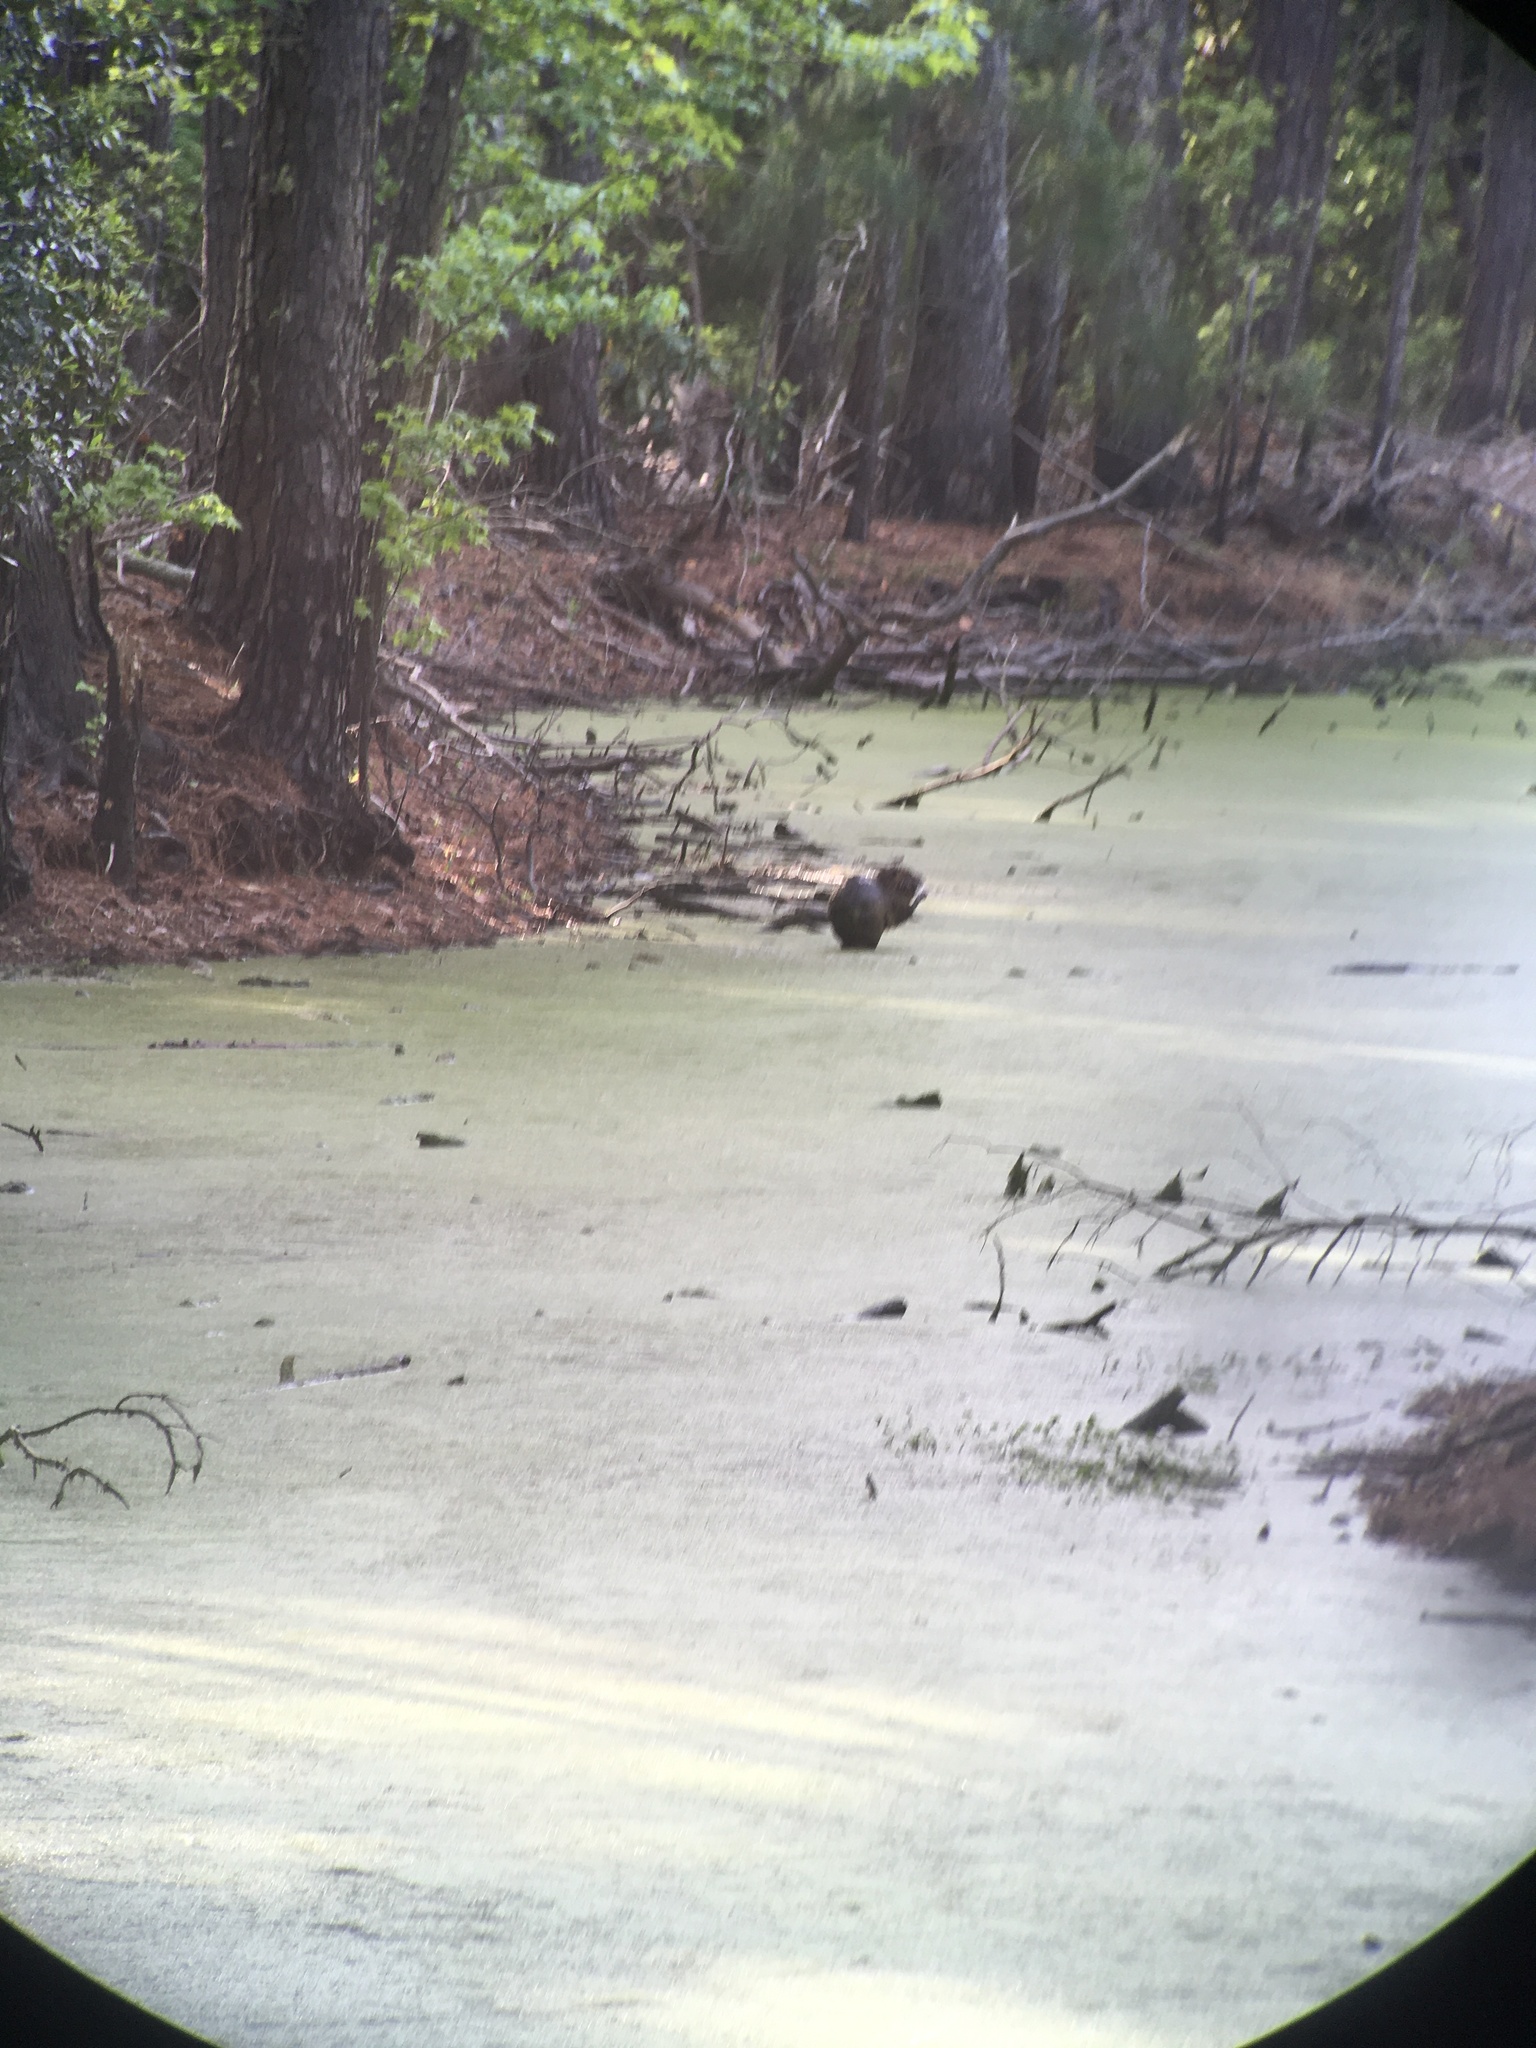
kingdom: Animalia
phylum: Chordata
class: Mammalia
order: Rodentia
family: Myocastoridae
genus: Myocastor
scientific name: Myocastor coypus
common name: Coypu
